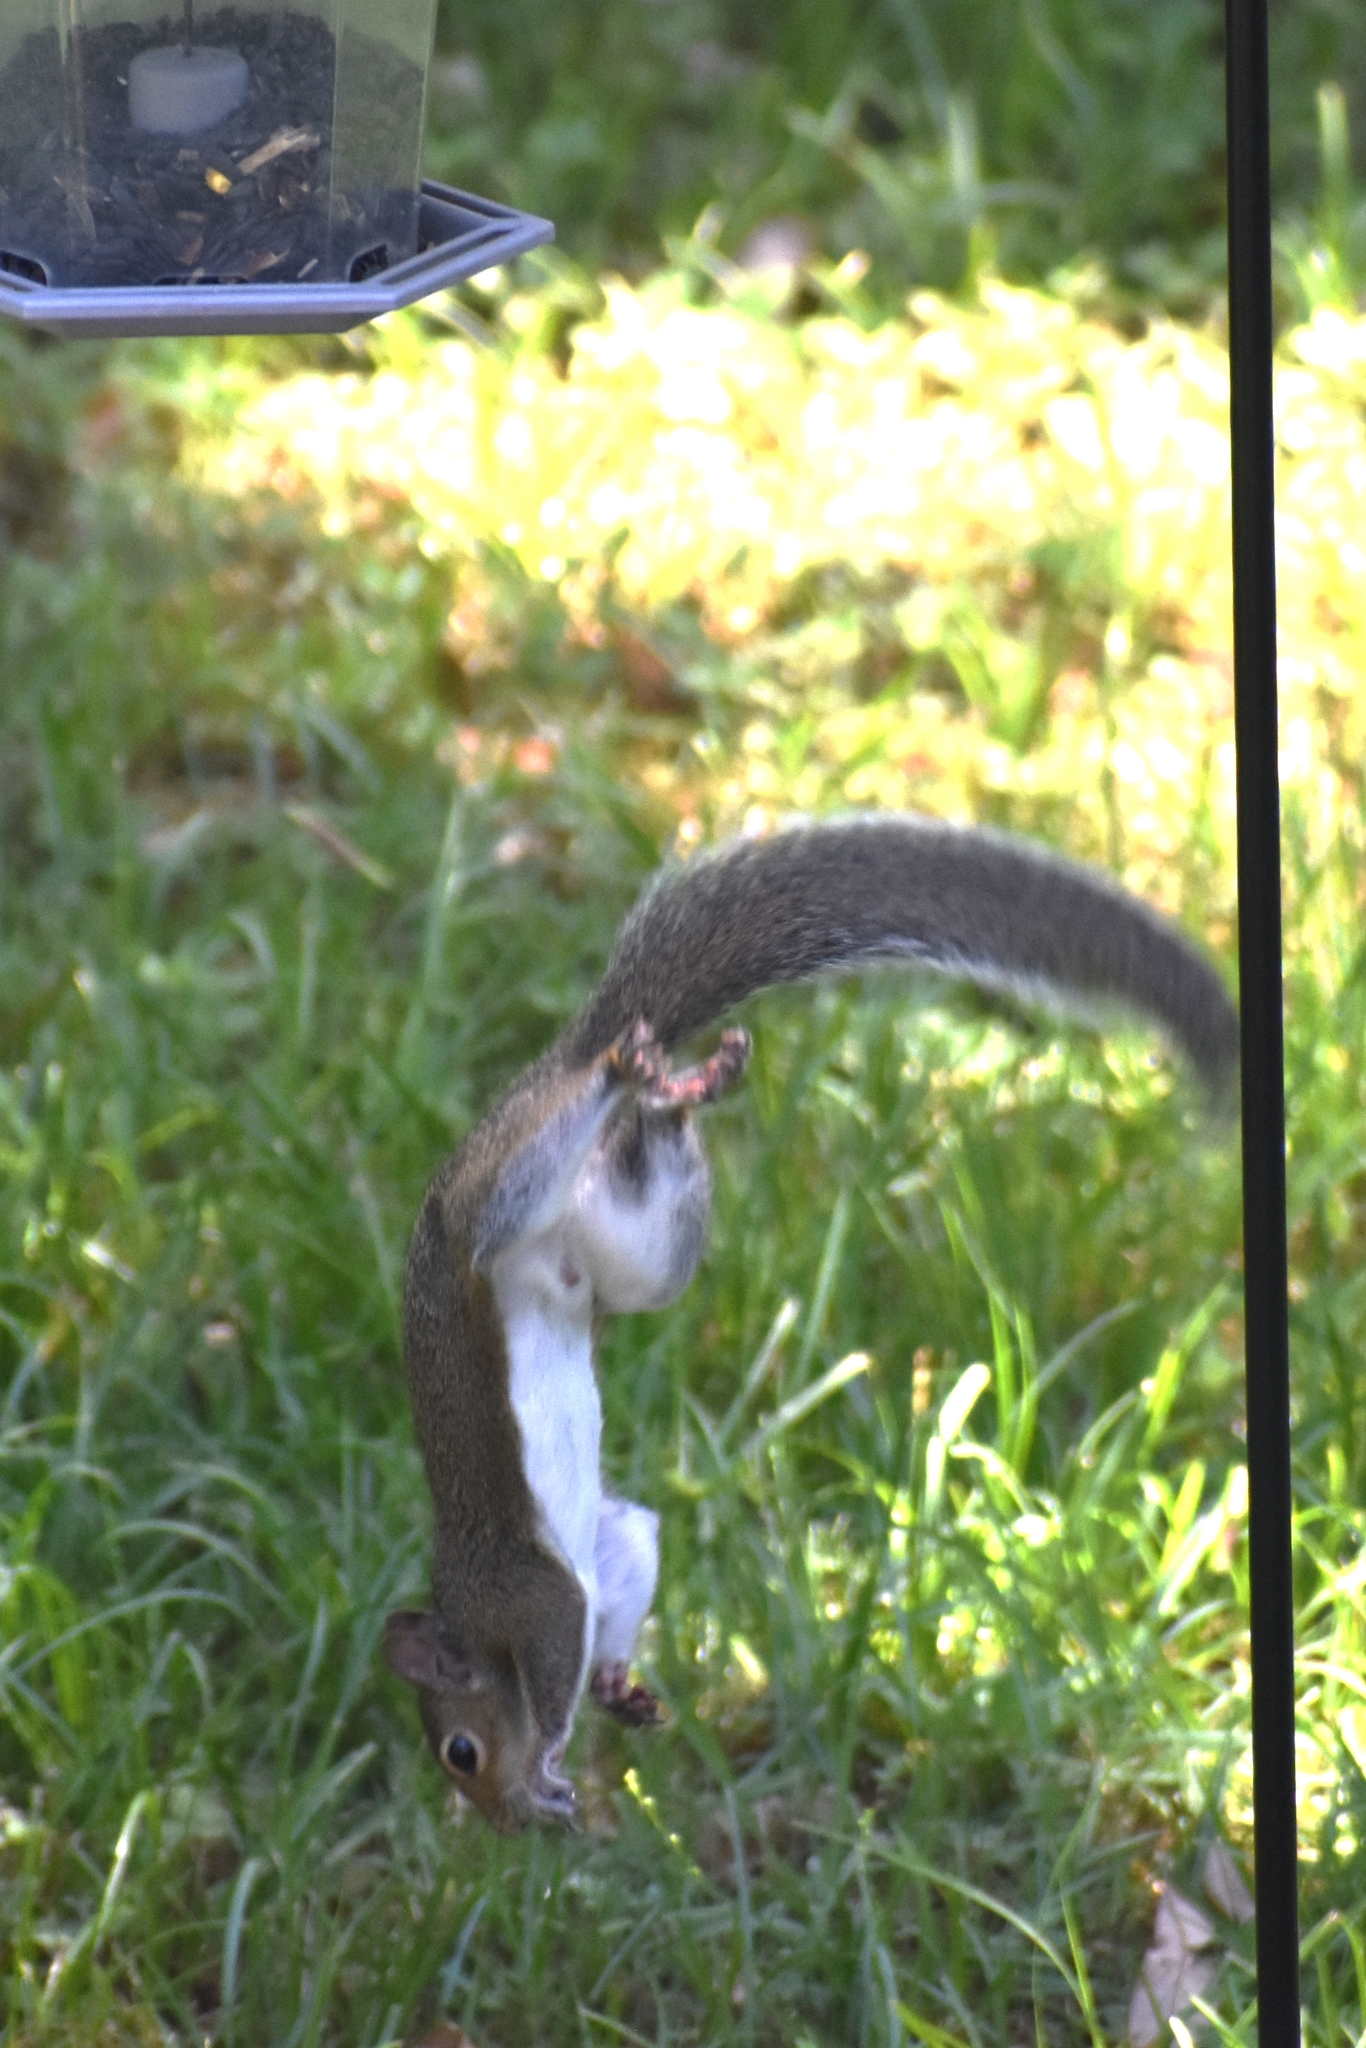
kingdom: Animalia
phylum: Chordata
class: Mammalia
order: Rodentia
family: Sciuridae
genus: Sciurus
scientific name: Sciurus carolinensis
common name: Eastern gray squirrel
